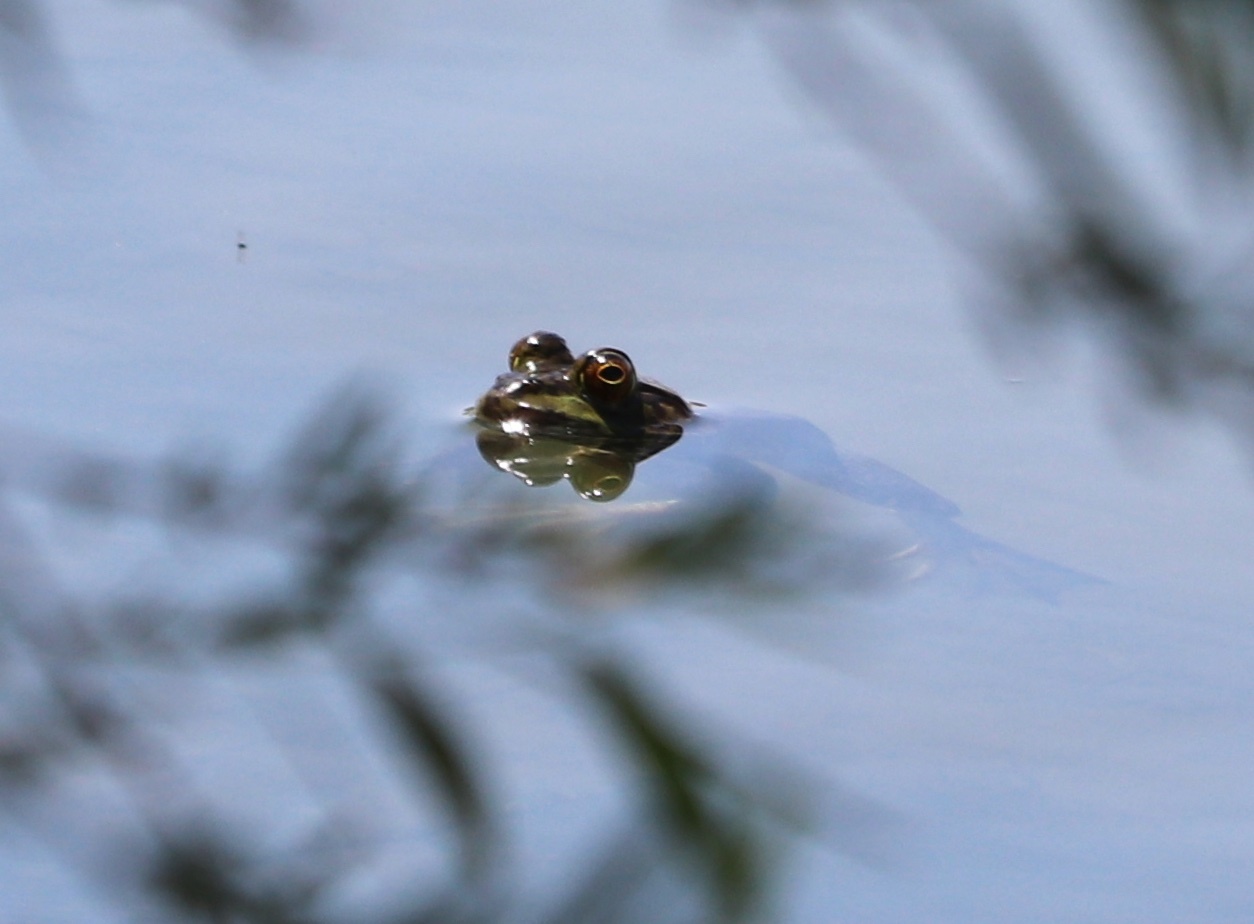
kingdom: Animalia
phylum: Chordata
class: Amphibia
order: Anura
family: Ranidae
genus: Lithobates
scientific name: Lithobates catesbeianus
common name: American bullfrog
